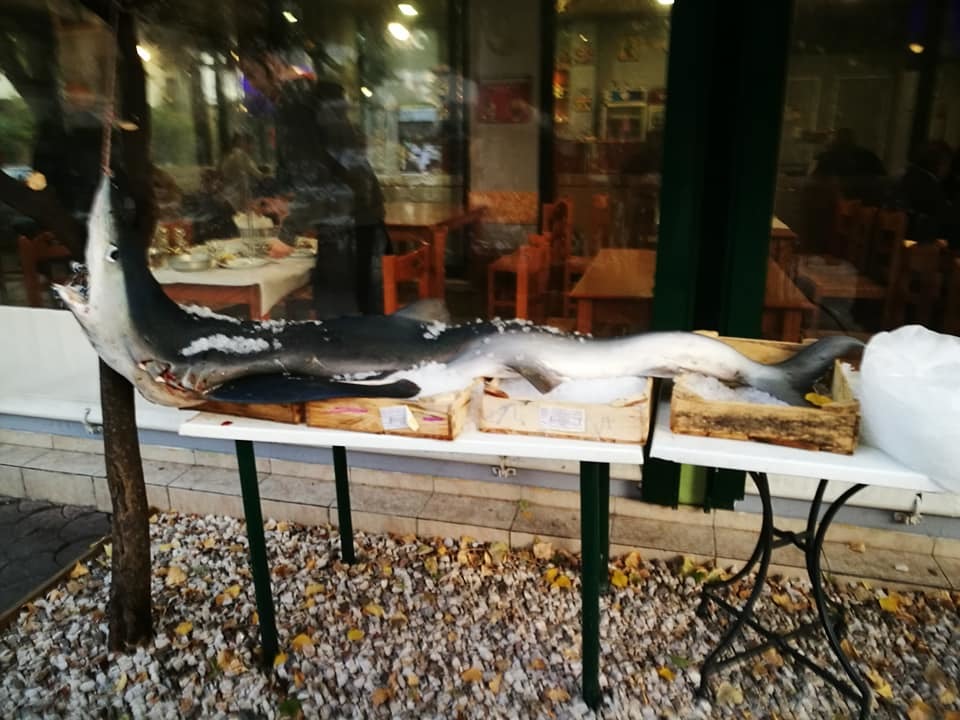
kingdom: Animalia
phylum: Chordata
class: Elasmobranchii
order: Carcharhiniformes
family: Carcharhinidae
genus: Prionace
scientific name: Prionace glauca
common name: Blue shark
